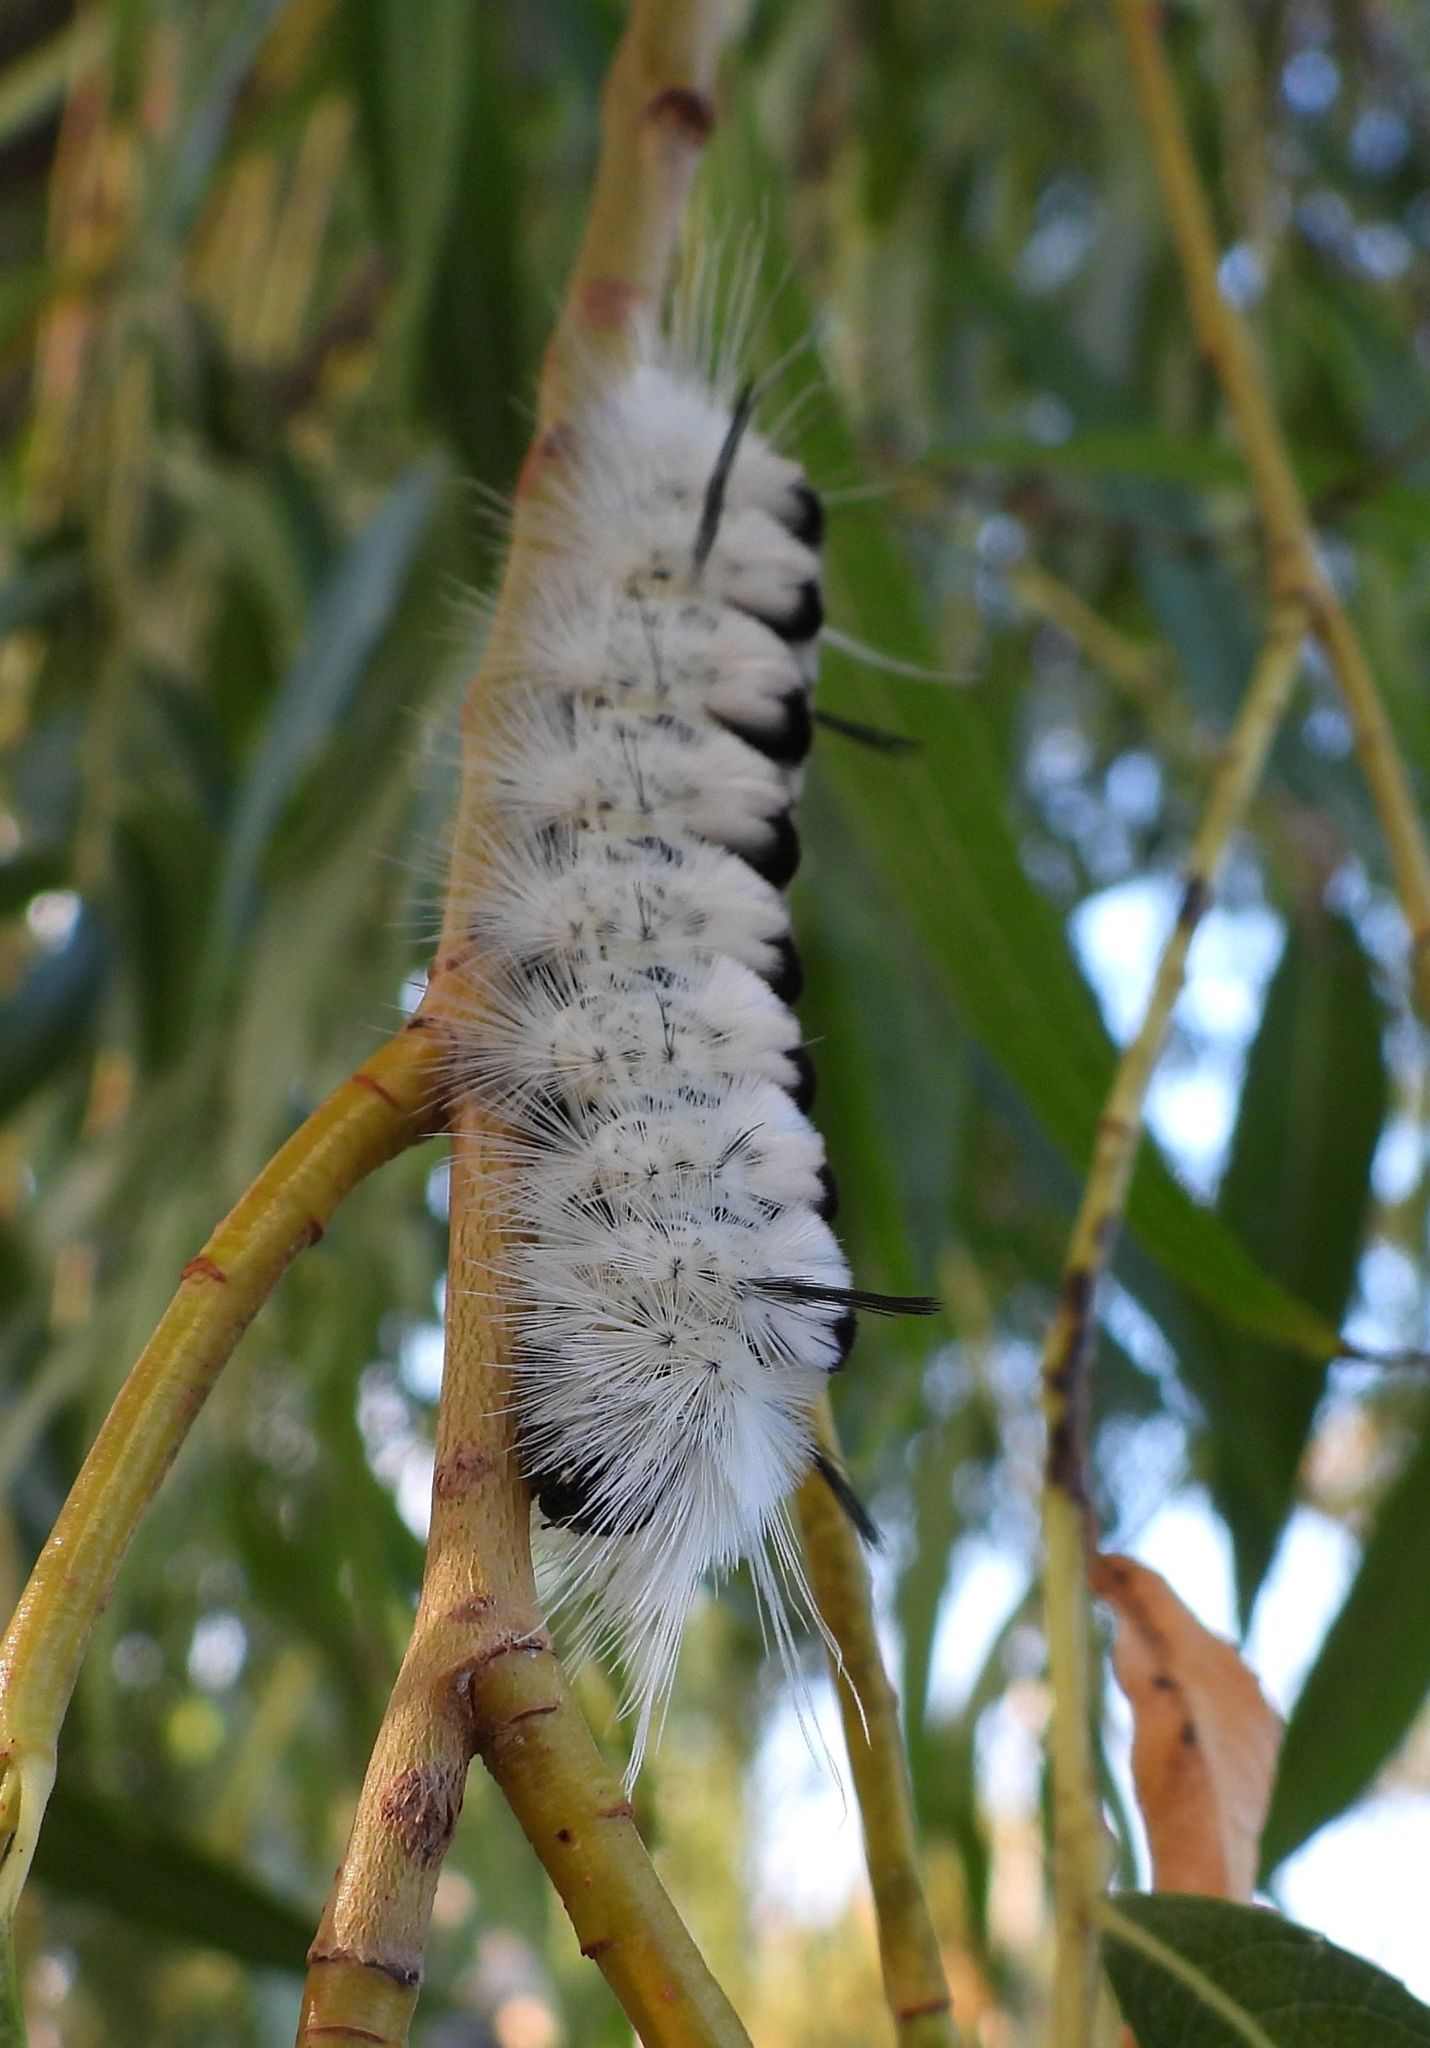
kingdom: Animalia
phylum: Arthropoda
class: Insecta
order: Lepidoptera
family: Erebidae
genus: Lophocampa
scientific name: Lophocampa caryae
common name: Hickory tussock moth
